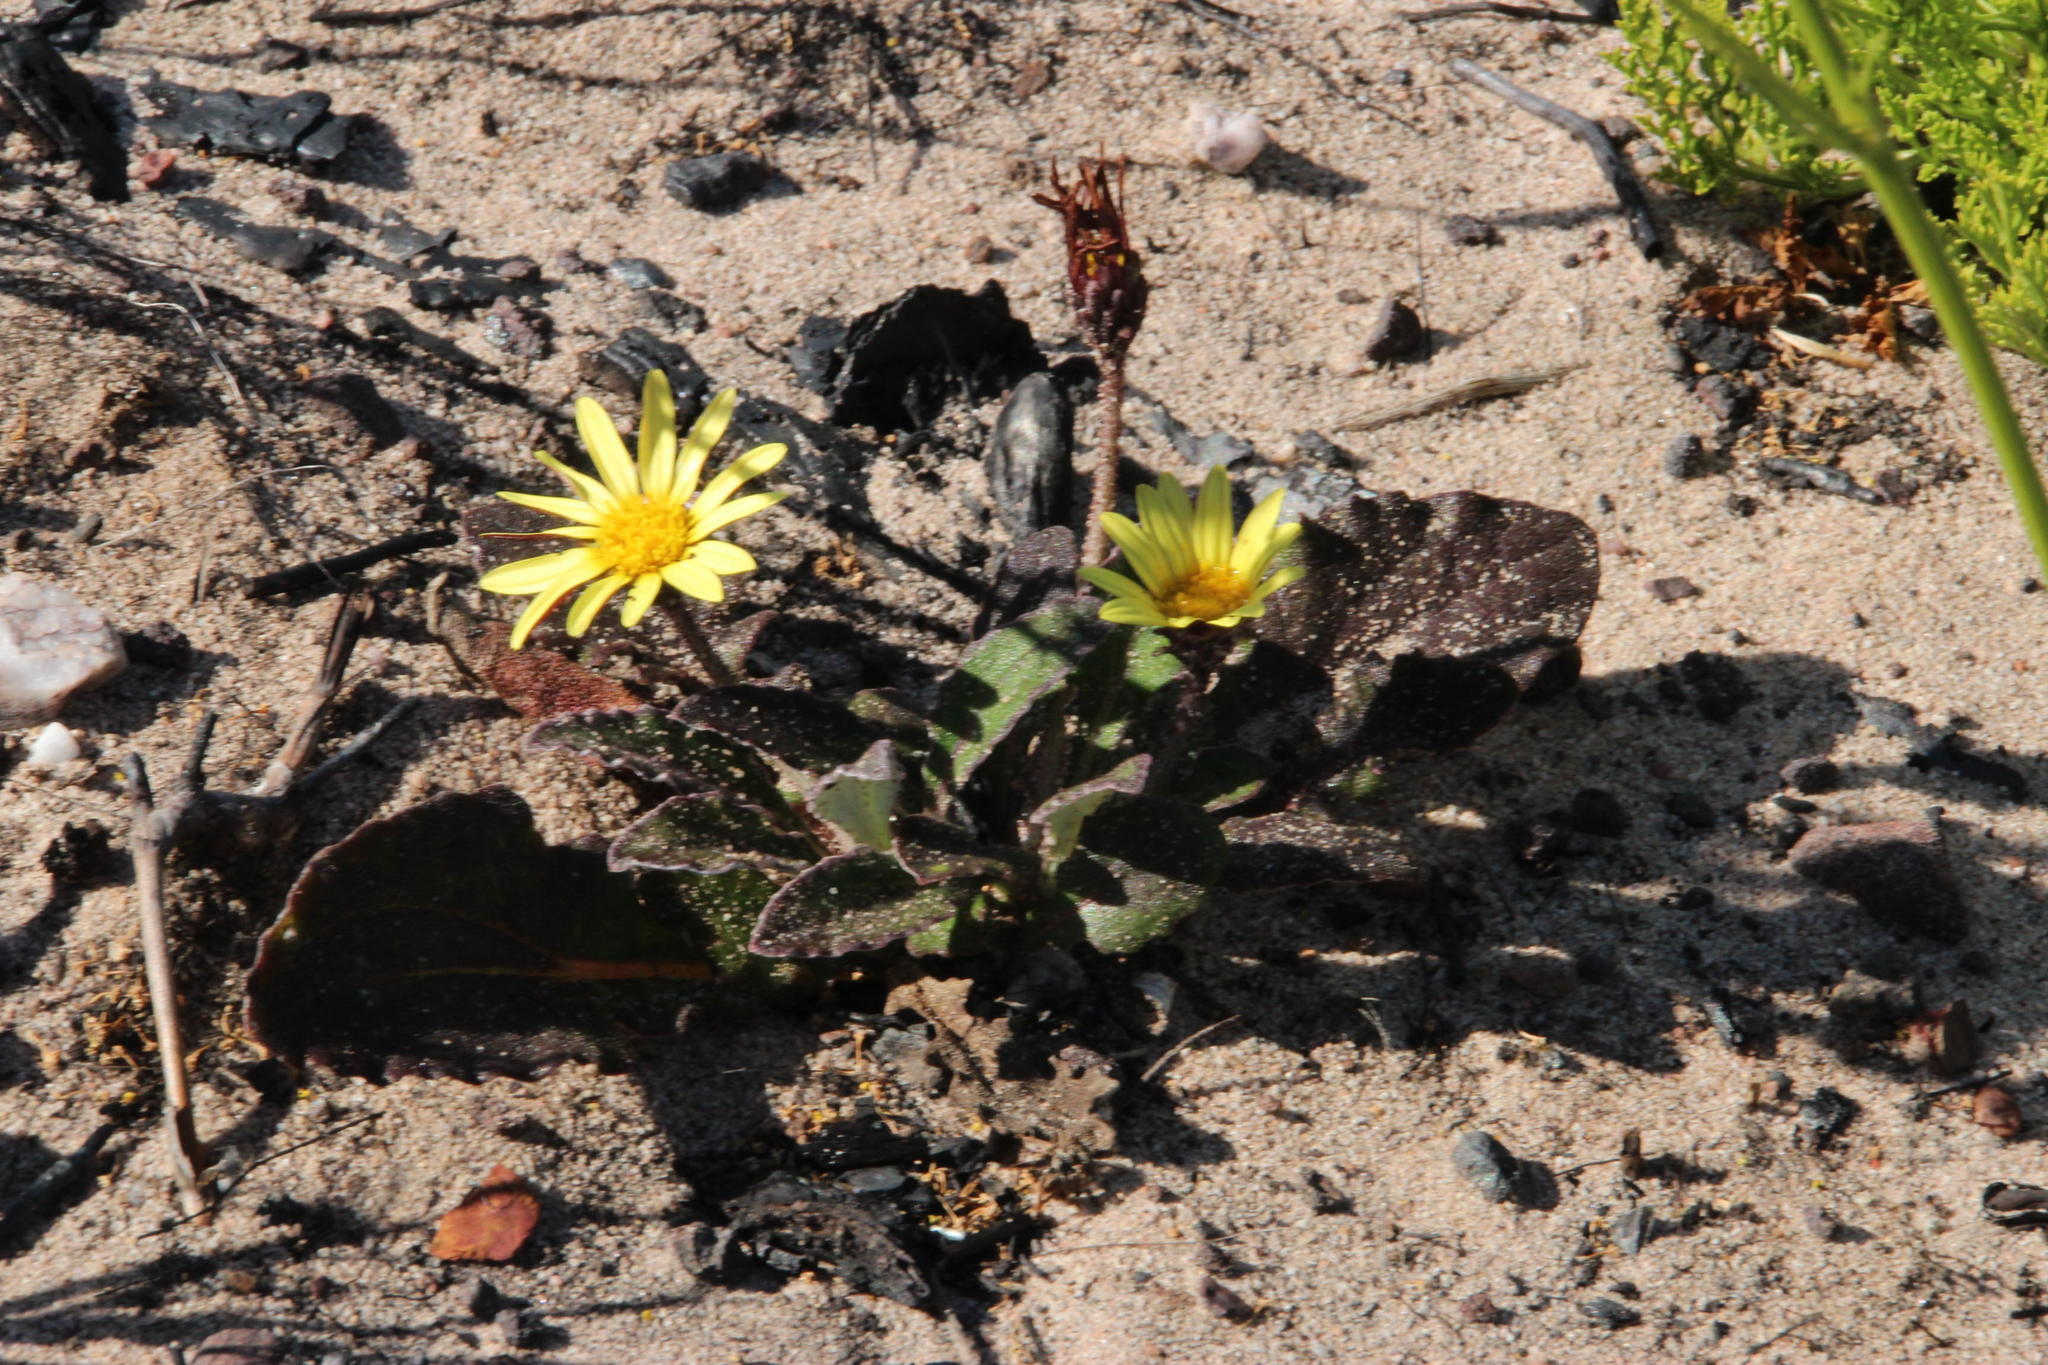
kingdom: Plantae
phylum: Tracheophyta
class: Magnoliopsida
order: Asterales
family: Asteraceae
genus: Haplocarpha
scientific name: Haplocarpha lanata
